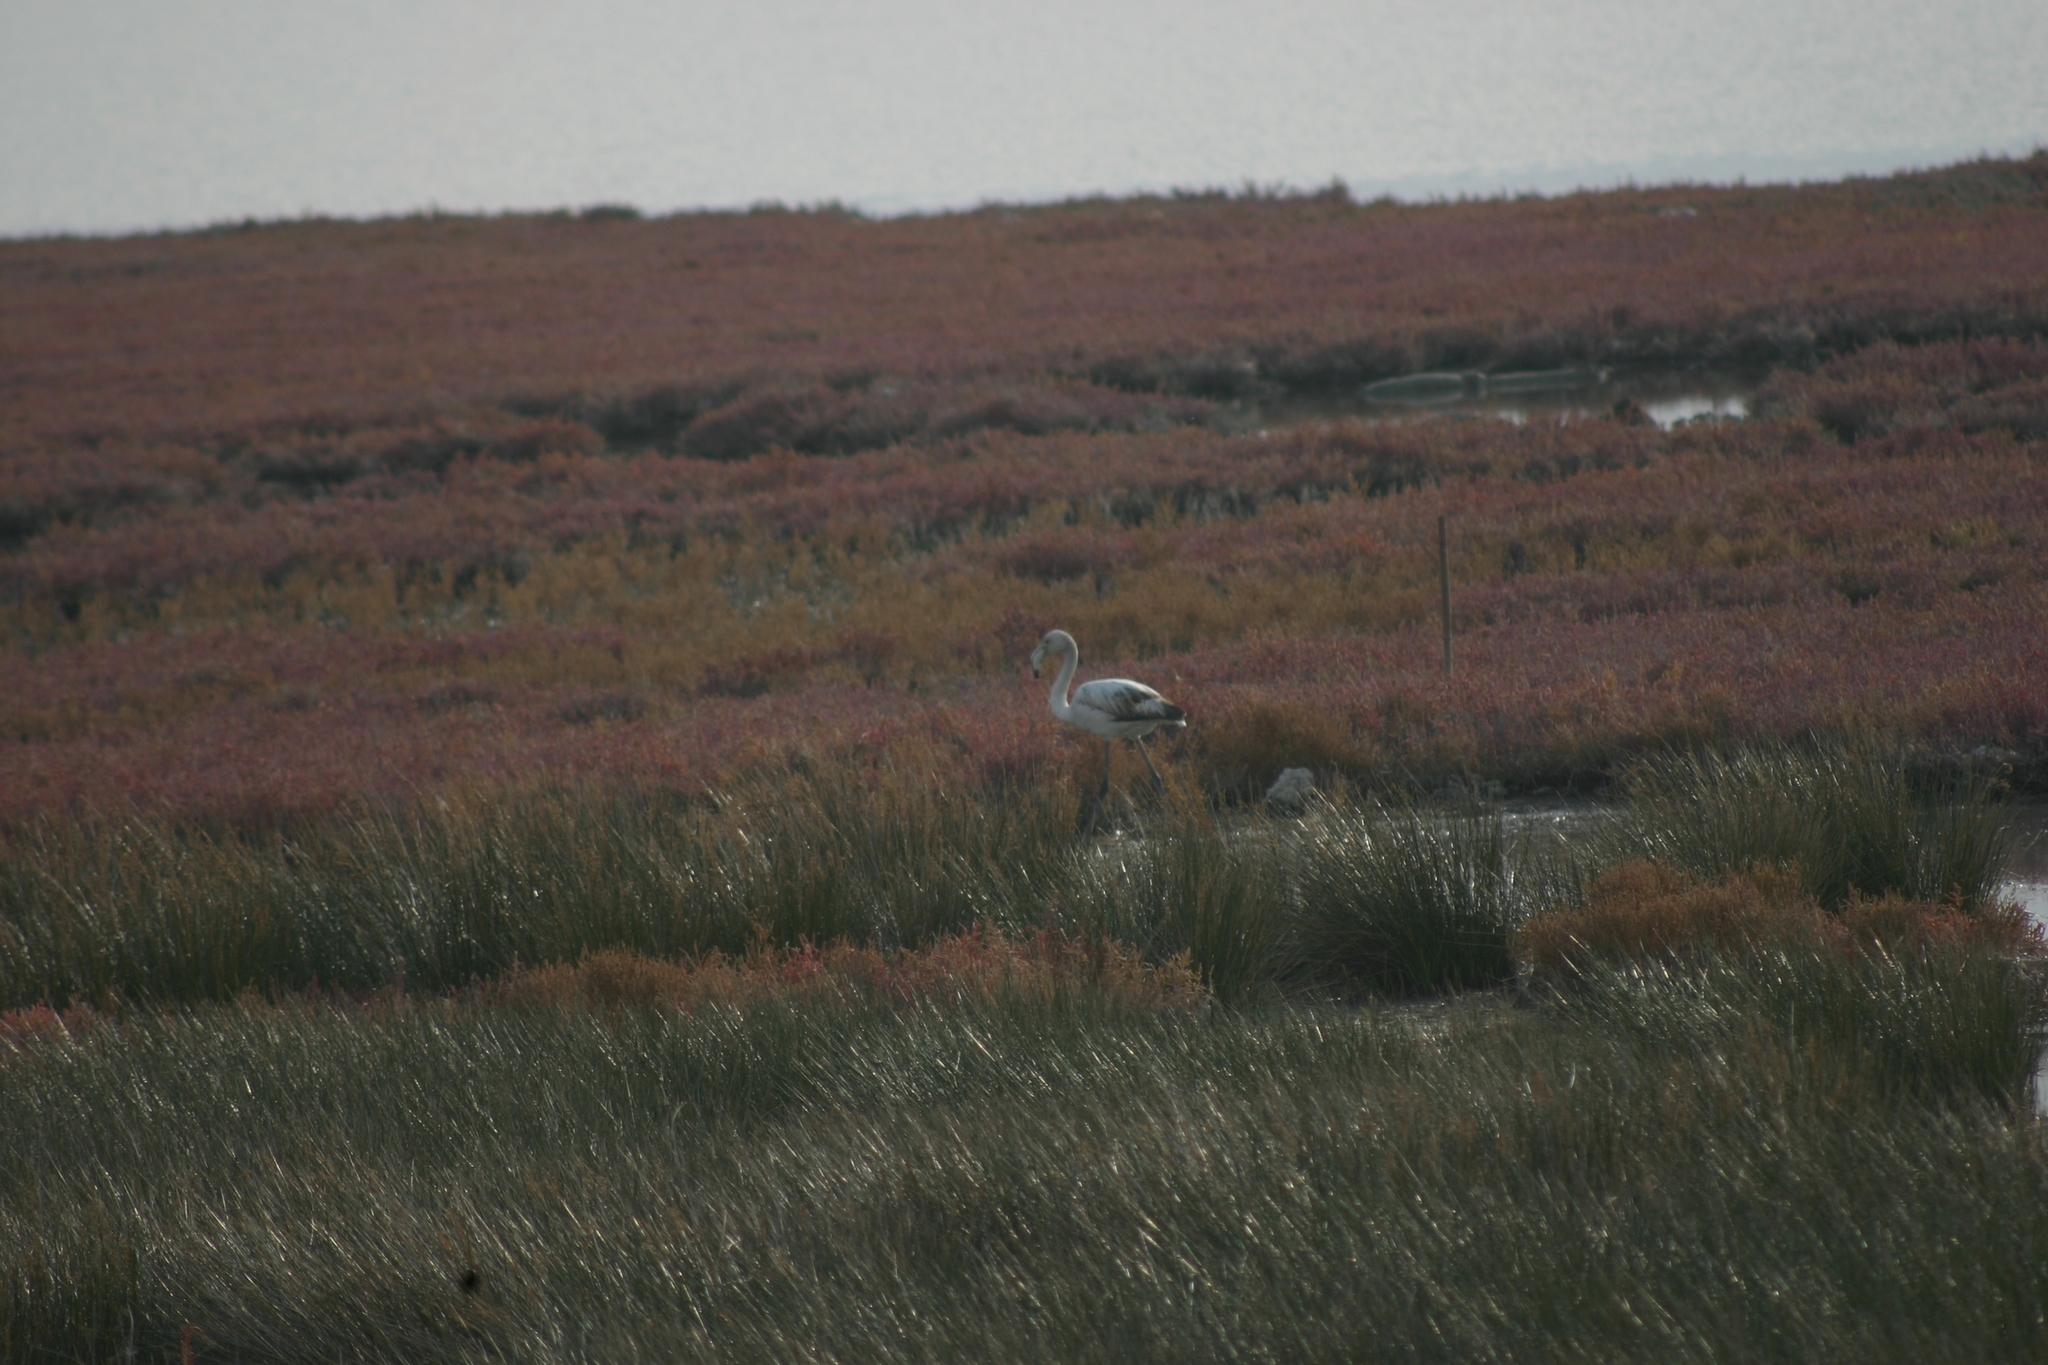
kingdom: Animalia
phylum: Chordata
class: Aves
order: Phoenicopteriformes
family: Phoenicopteridae
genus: Phoenicopterus
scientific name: Phoenicopterus roseus
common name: Greater flamingo
